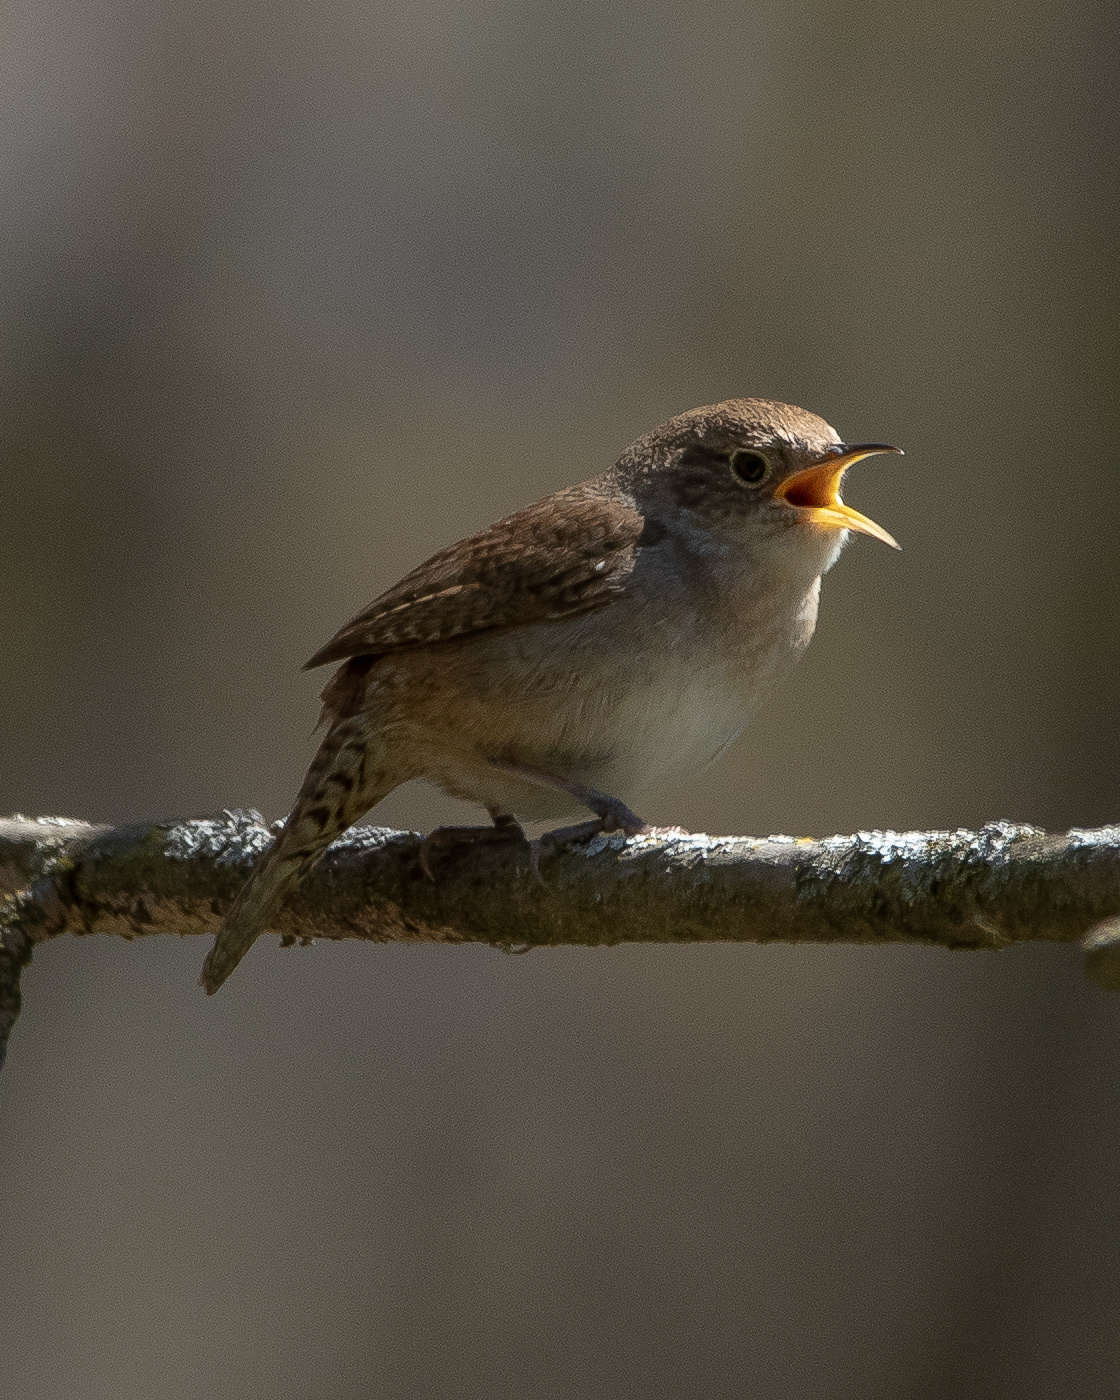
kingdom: Animalia
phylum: Chordata
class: Aves
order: Passeriformes
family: Troglodytidae
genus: Troglodytes
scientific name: Troglodytes aedon
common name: House wren
